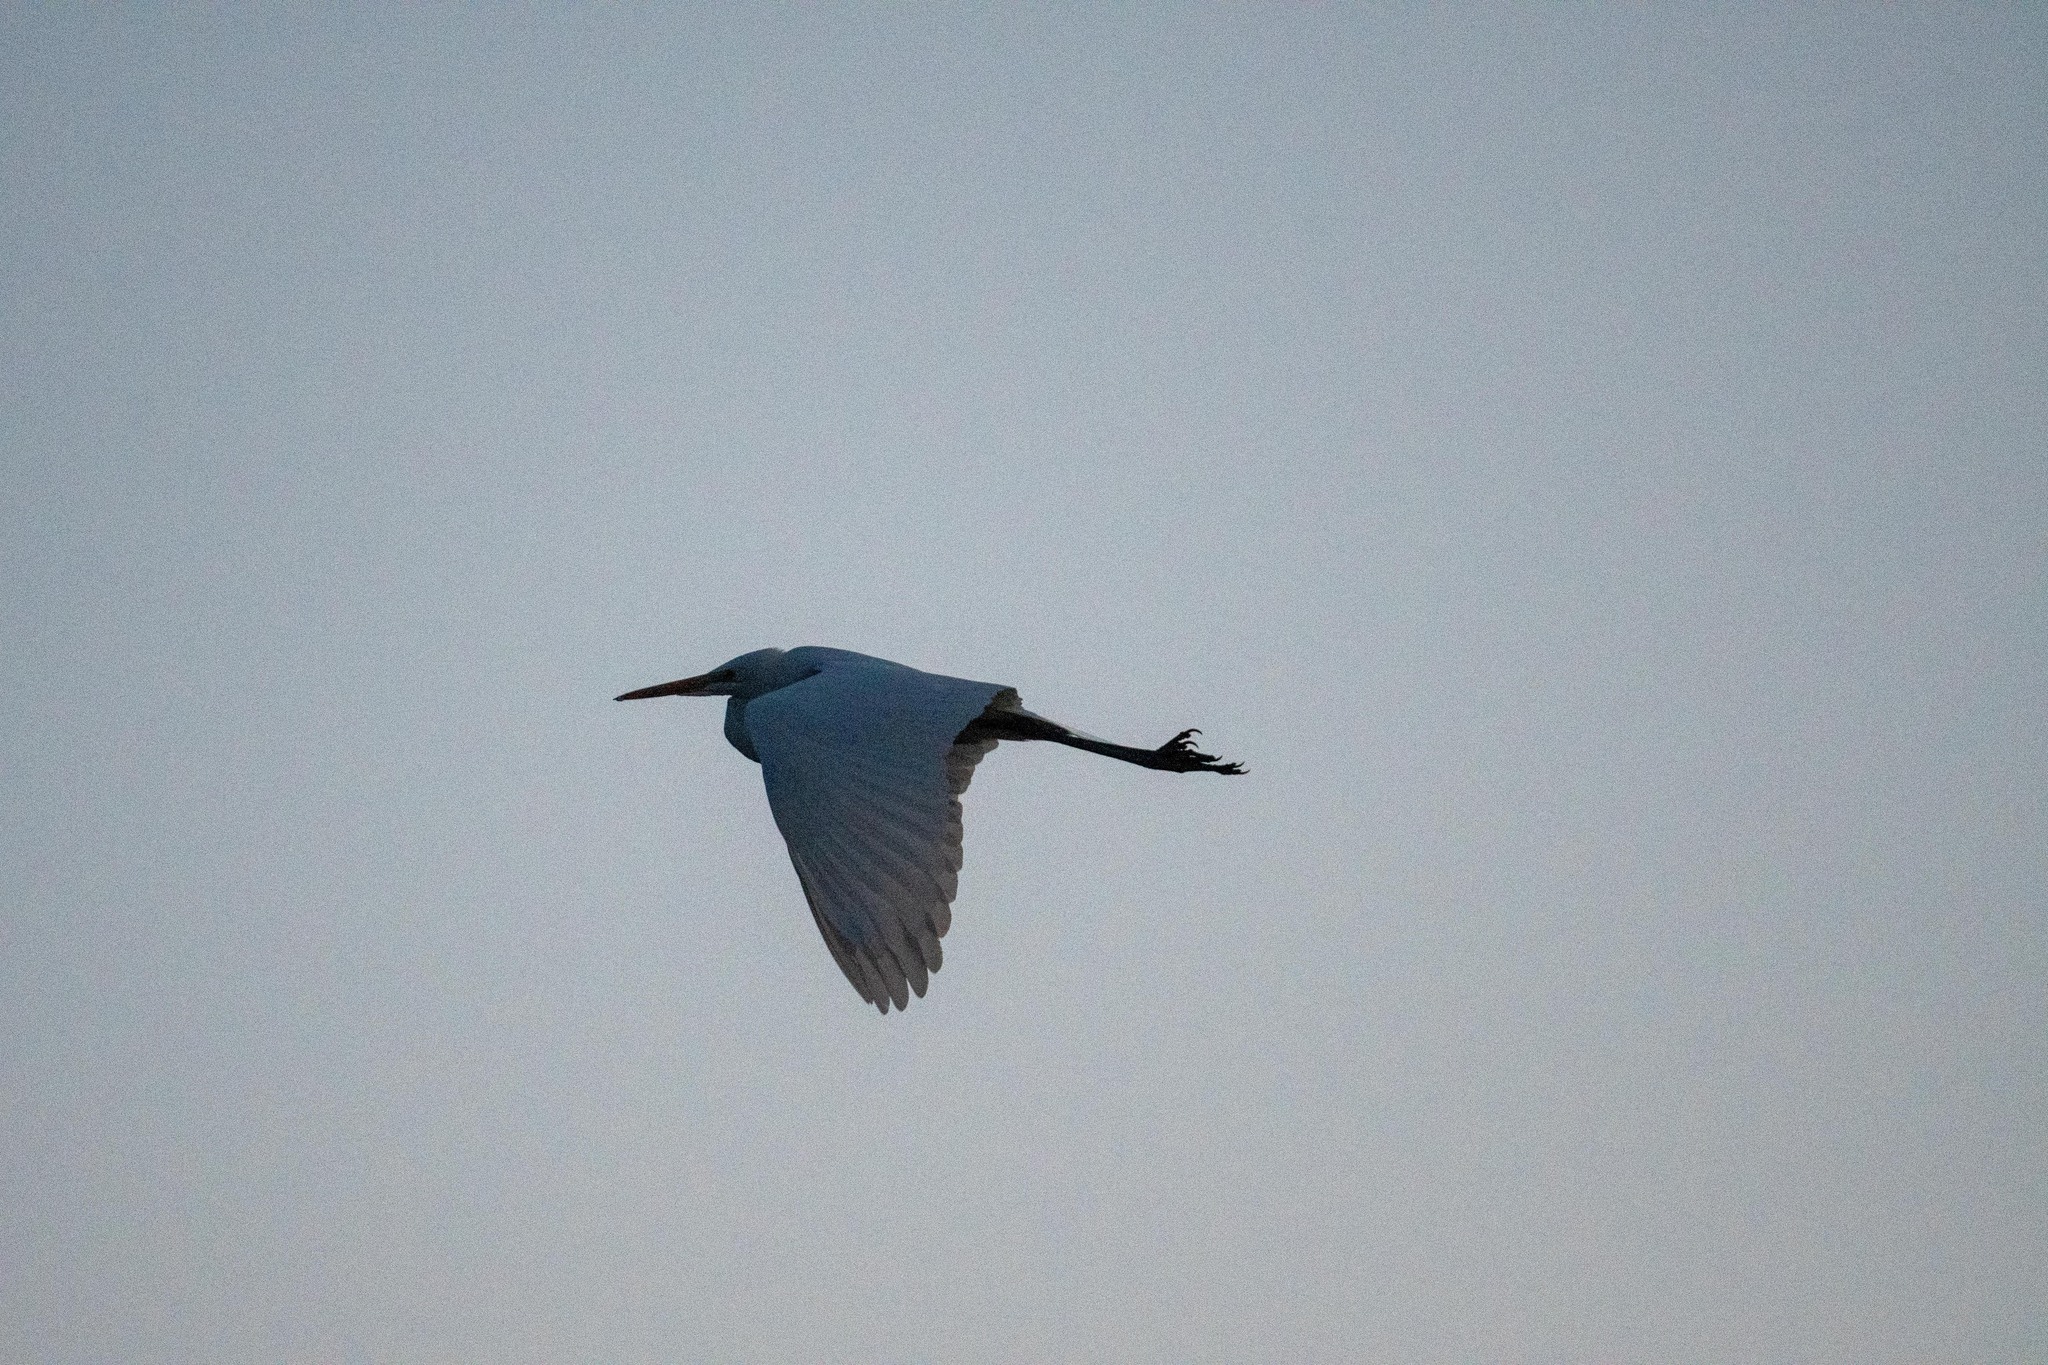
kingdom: Animalia
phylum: Chordata
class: Aves
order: Pelecaniformes
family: Ardeidae
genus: Ardea
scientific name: Ardea alba
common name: Great egret
